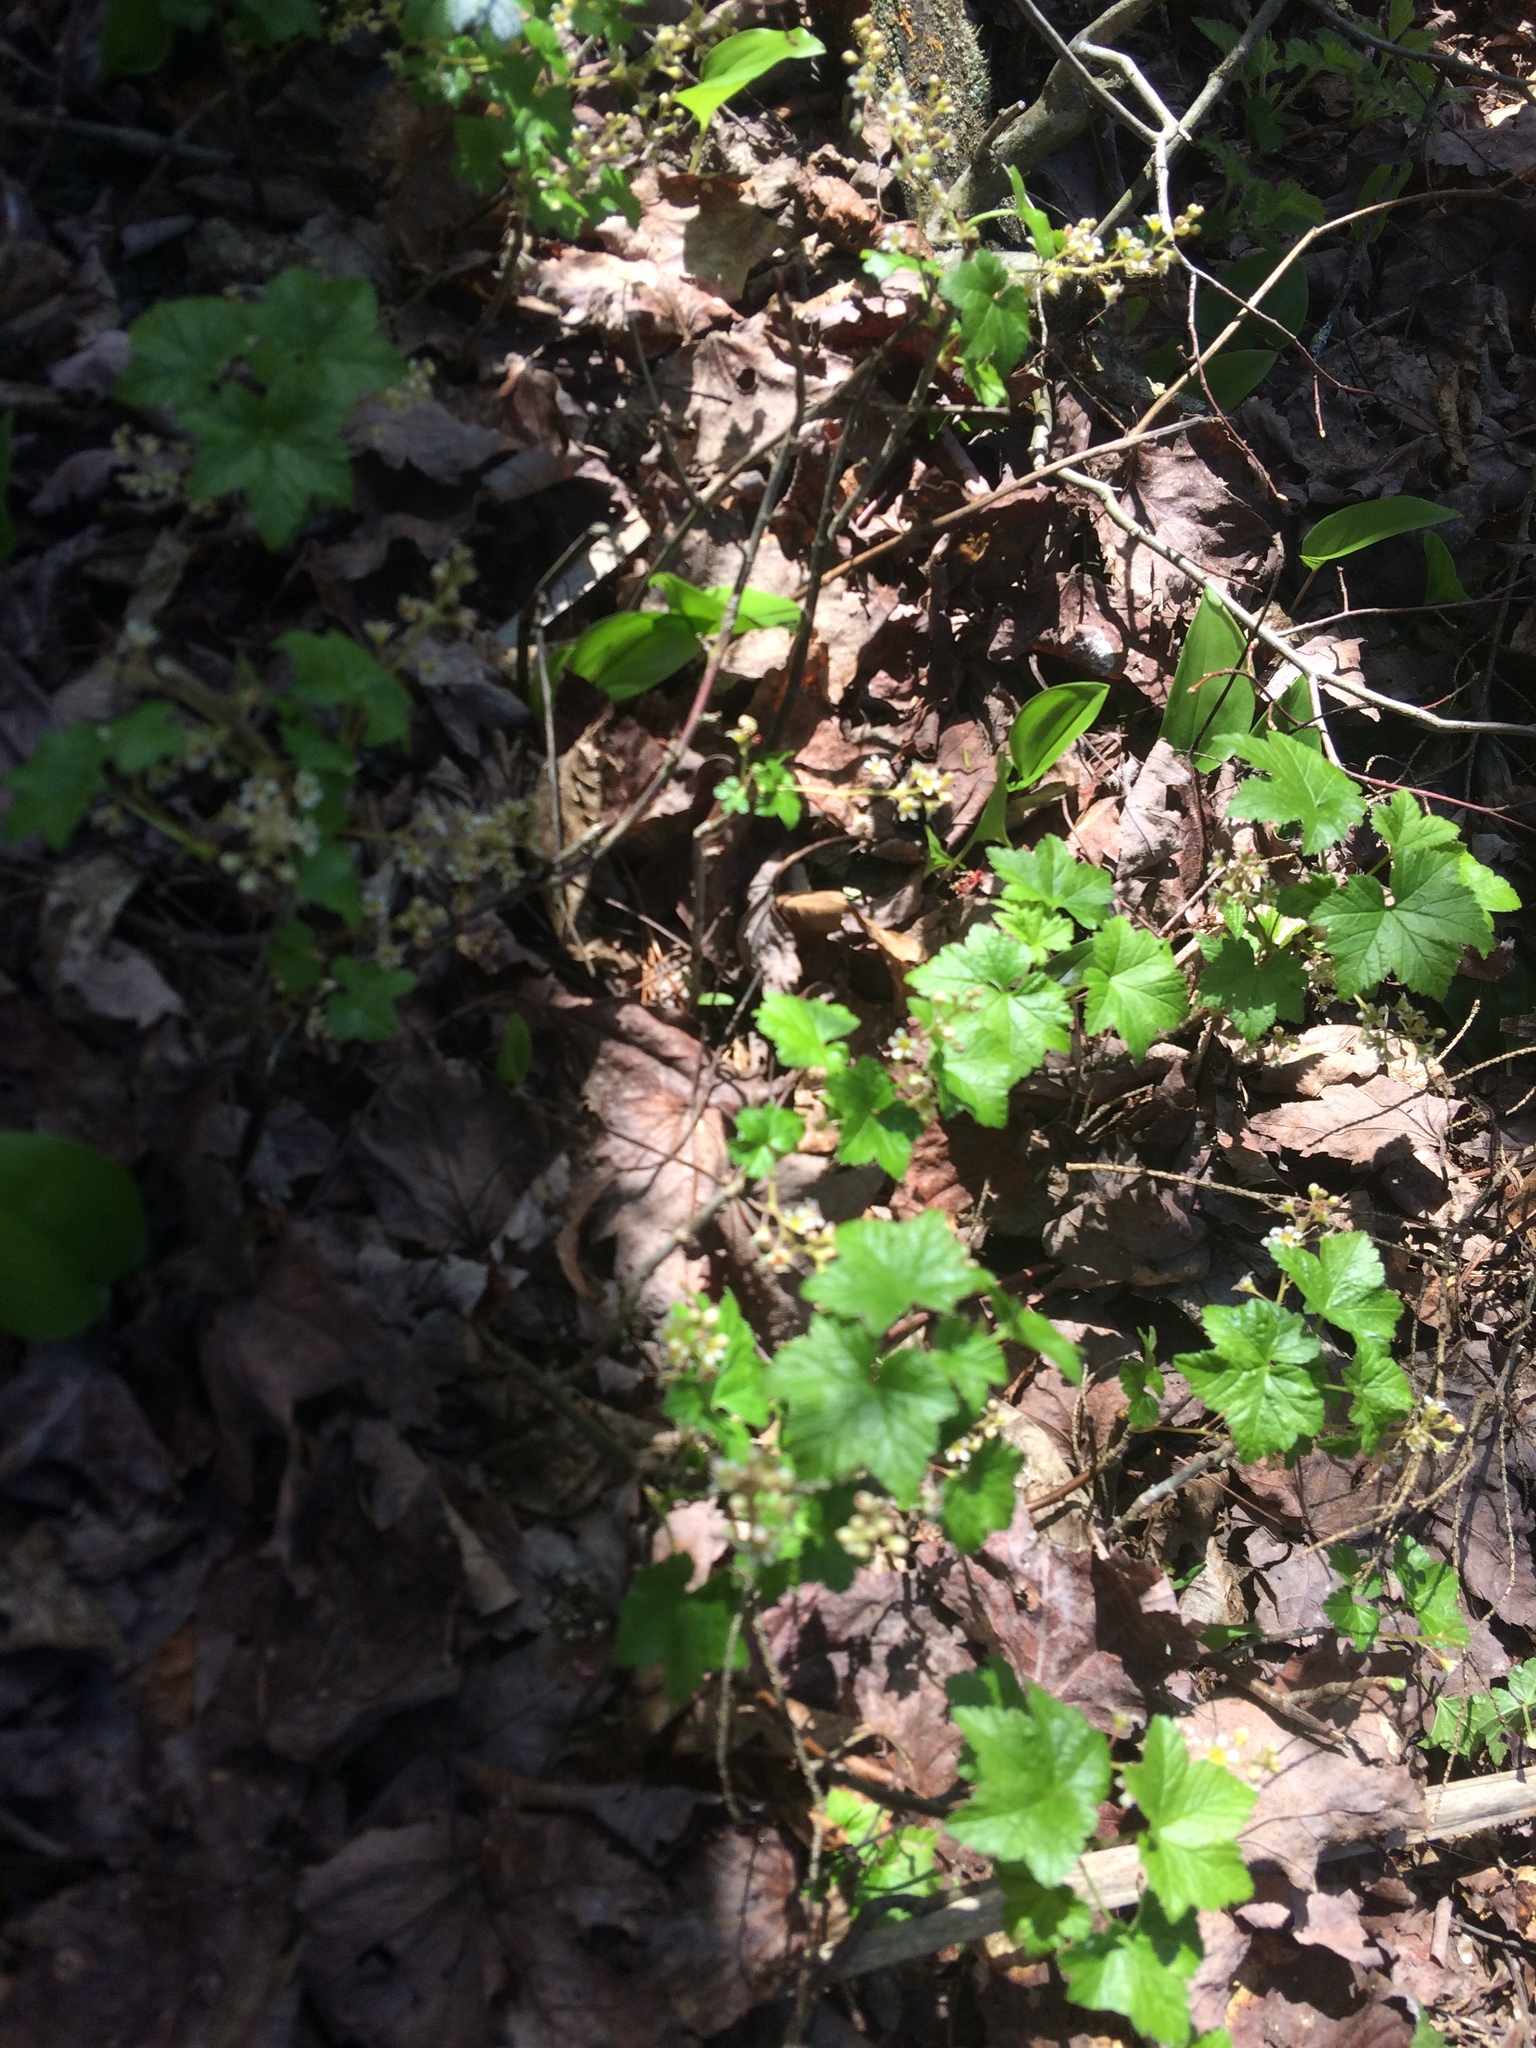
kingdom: Plantae
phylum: Tracheophyta
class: Magnoliopsida
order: Saxifragales
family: Grossulariaceae
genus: Ribes
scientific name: Ribes glandulosum
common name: Skunk currant
